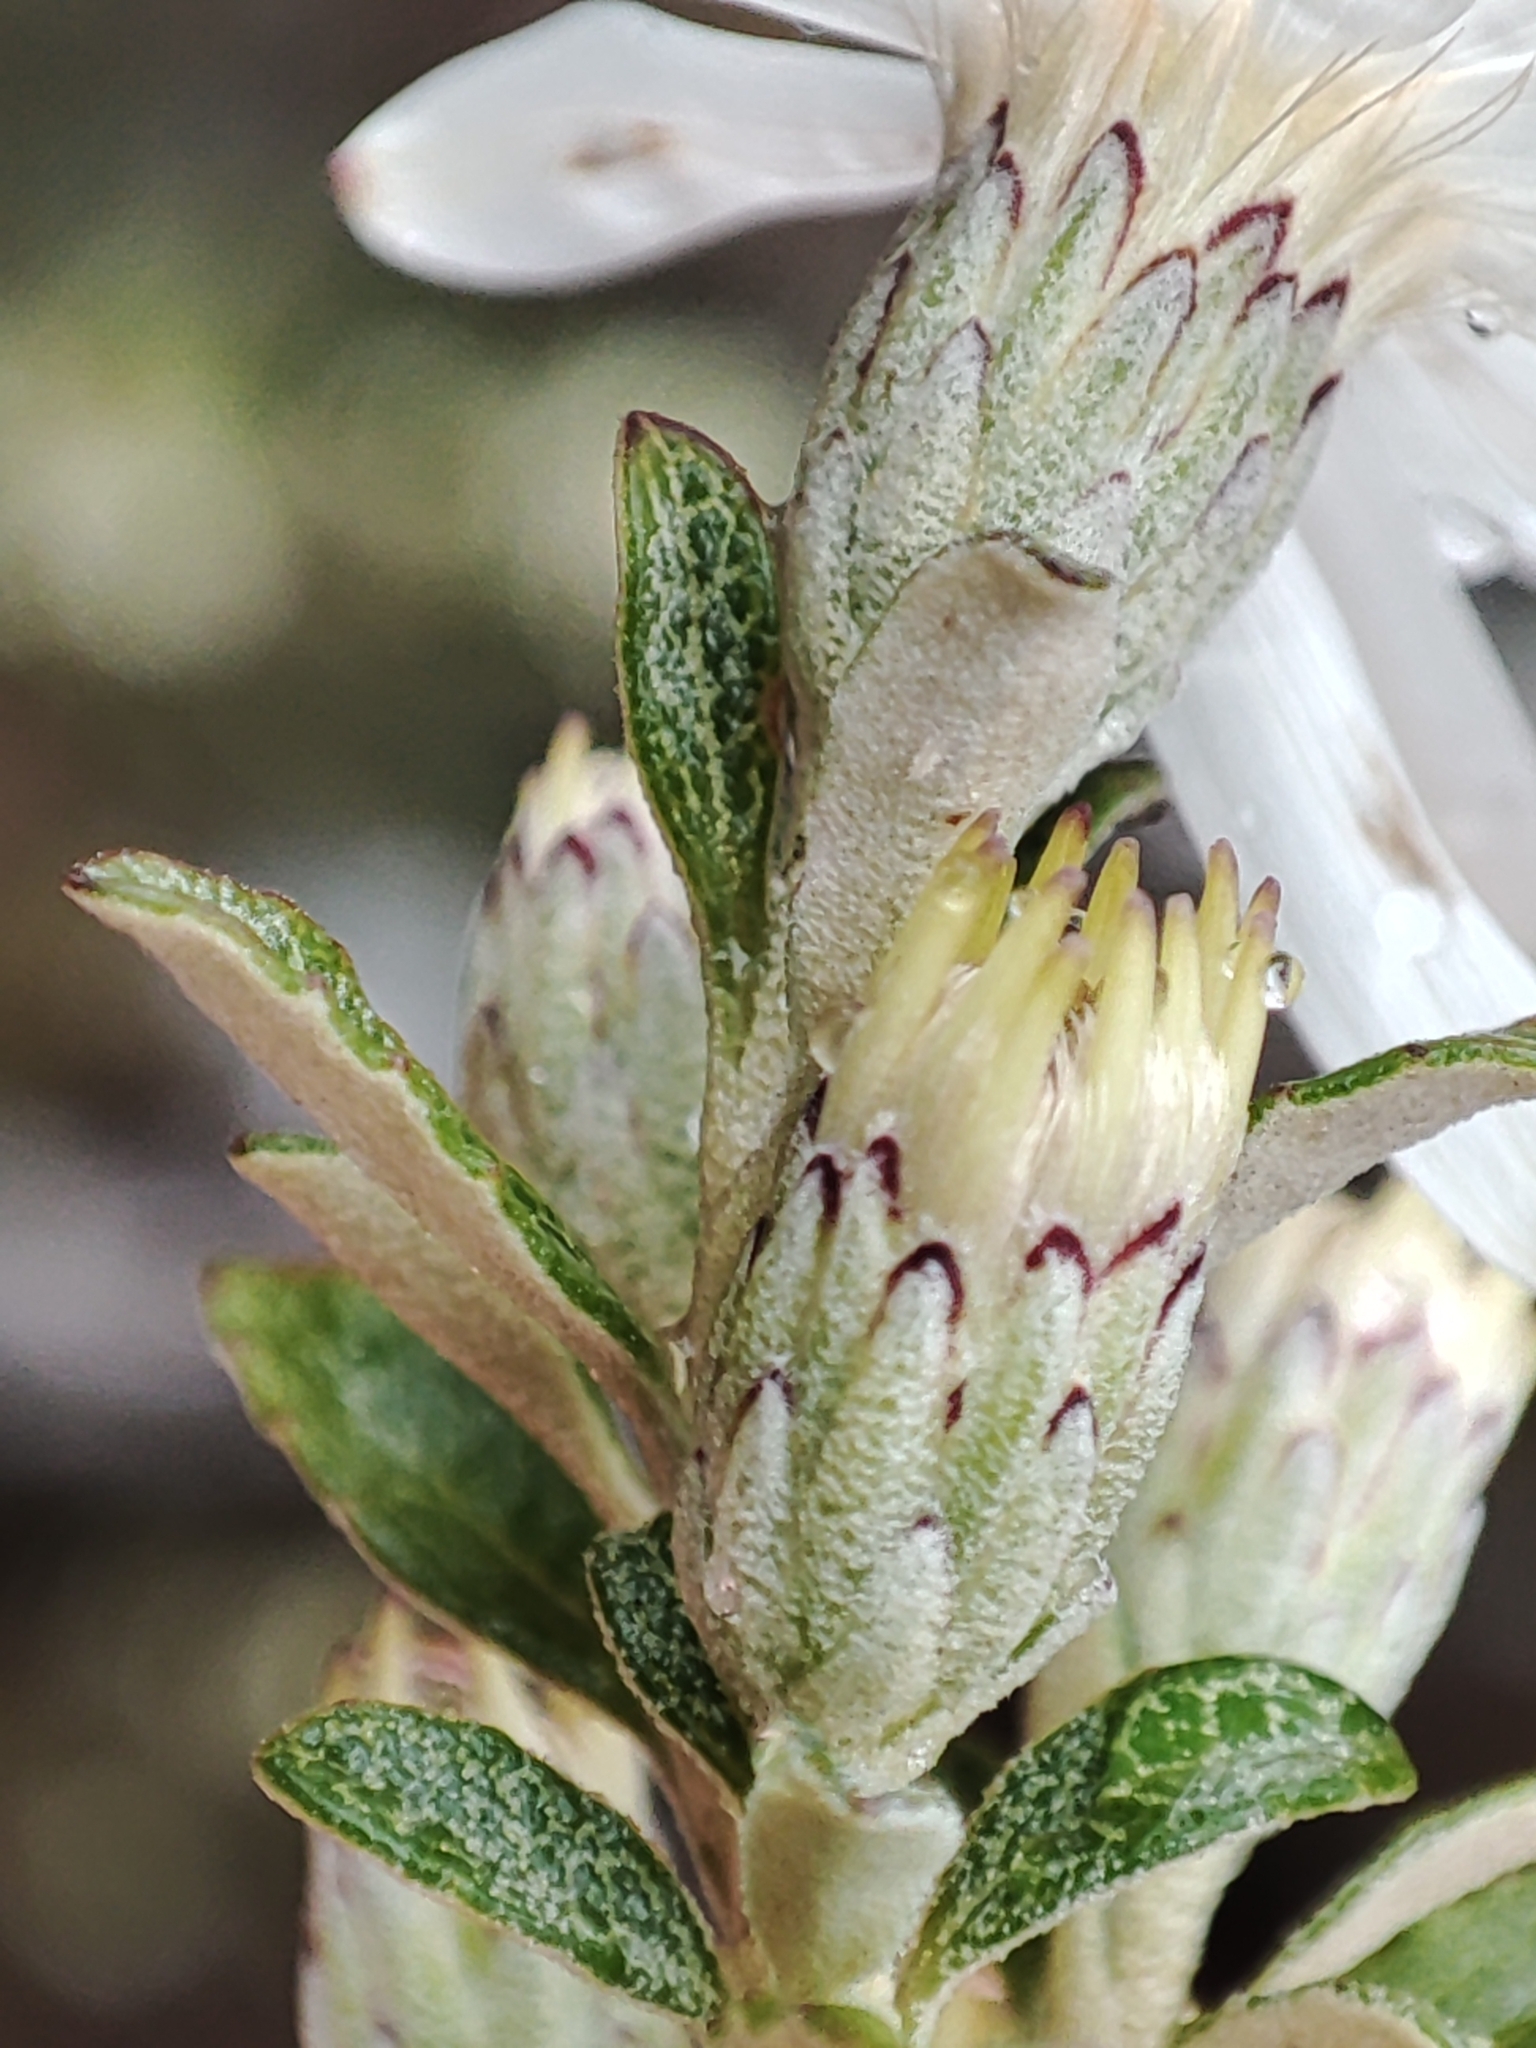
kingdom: Plantae
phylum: Tracheophyta
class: Magnoliopsida
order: Asterales
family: Asteraceae
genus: Olearia
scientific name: Olearia phlogopappa
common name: Alpine daisybush
